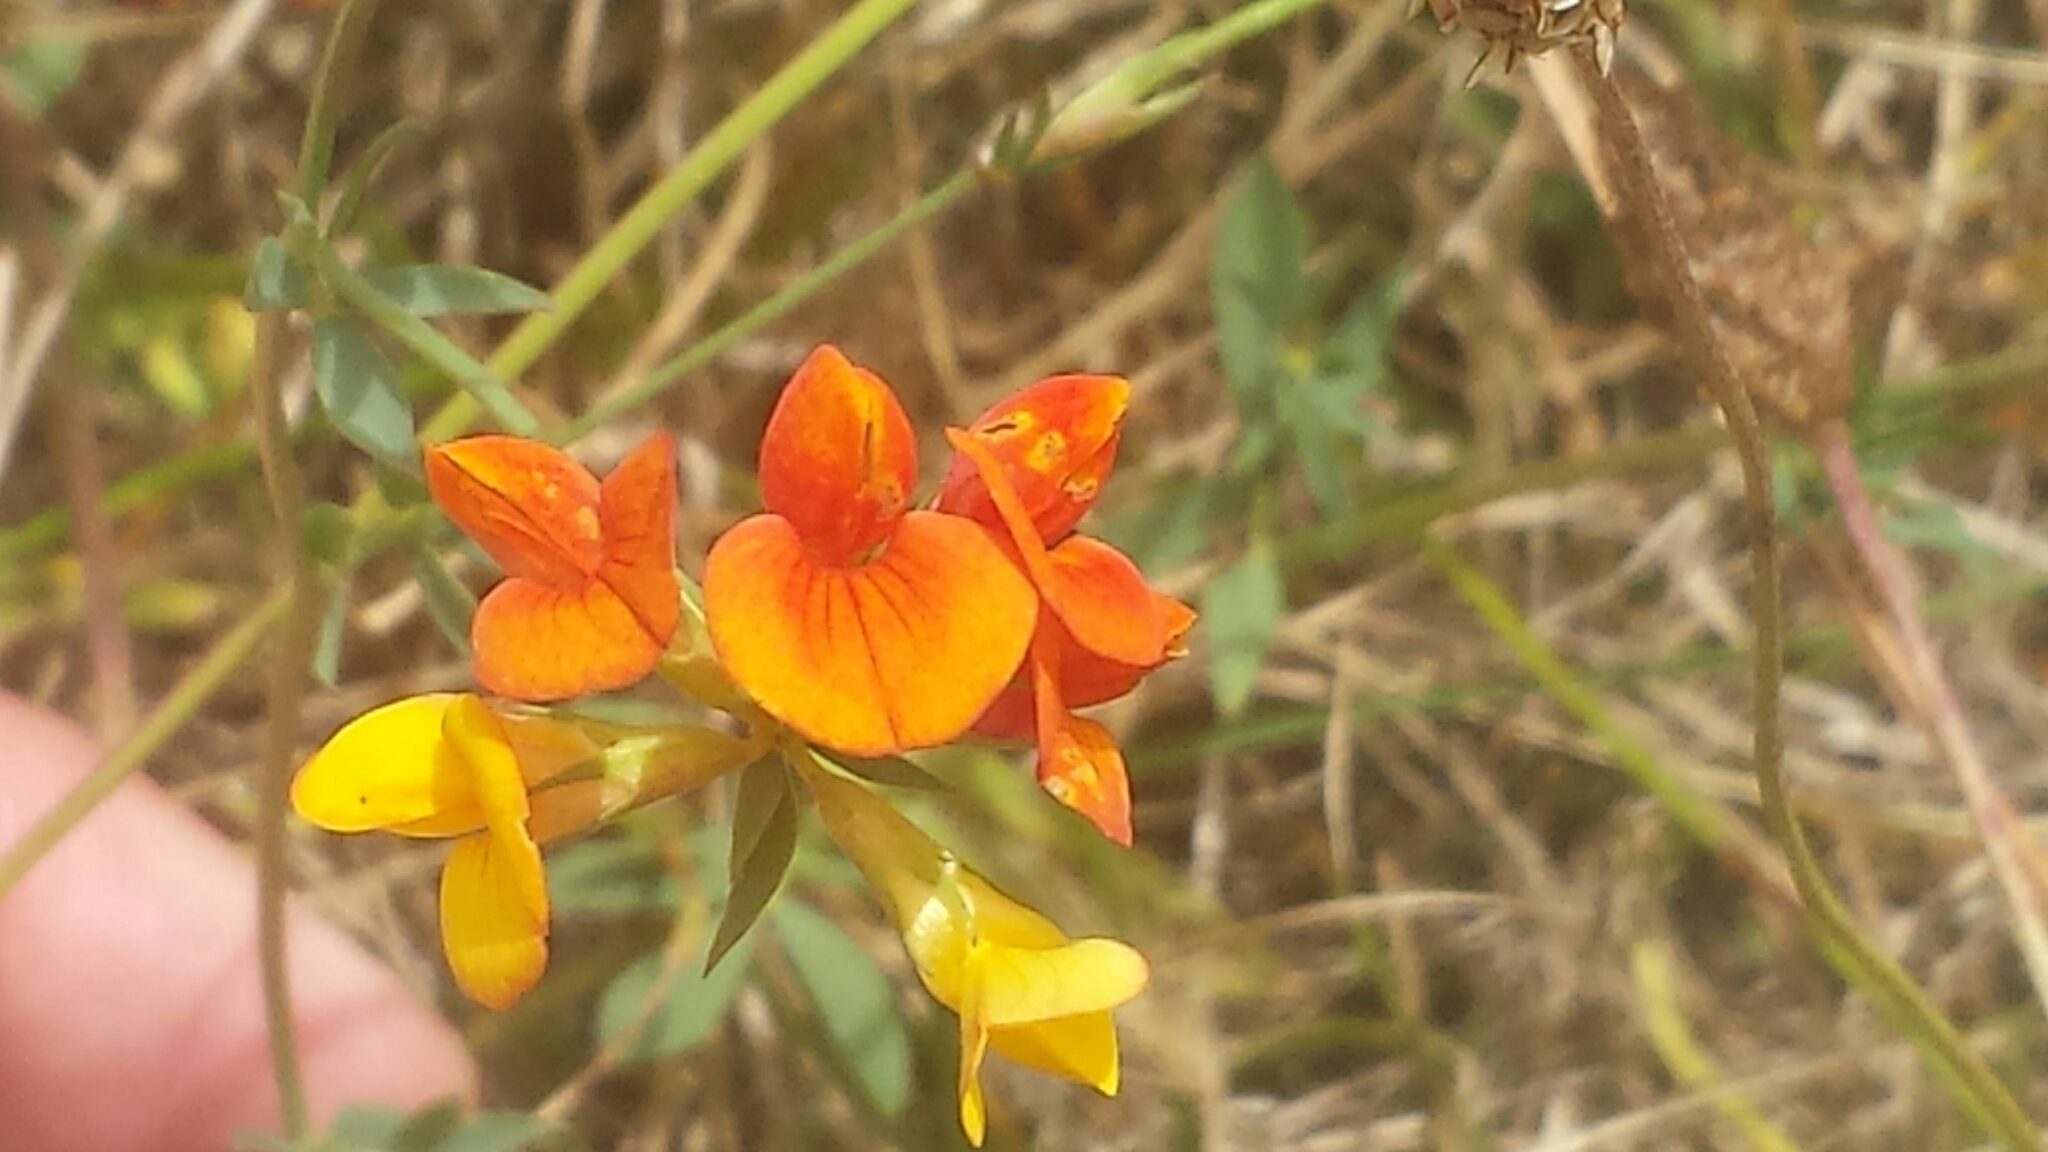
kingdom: Plantae
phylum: Tracheophyta
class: Magnoliopsida
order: Fabales
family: Fabaceae
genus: Lotus
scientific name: Lotus tenuis
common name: Narrow-leaved bird's-foot-trefoil
